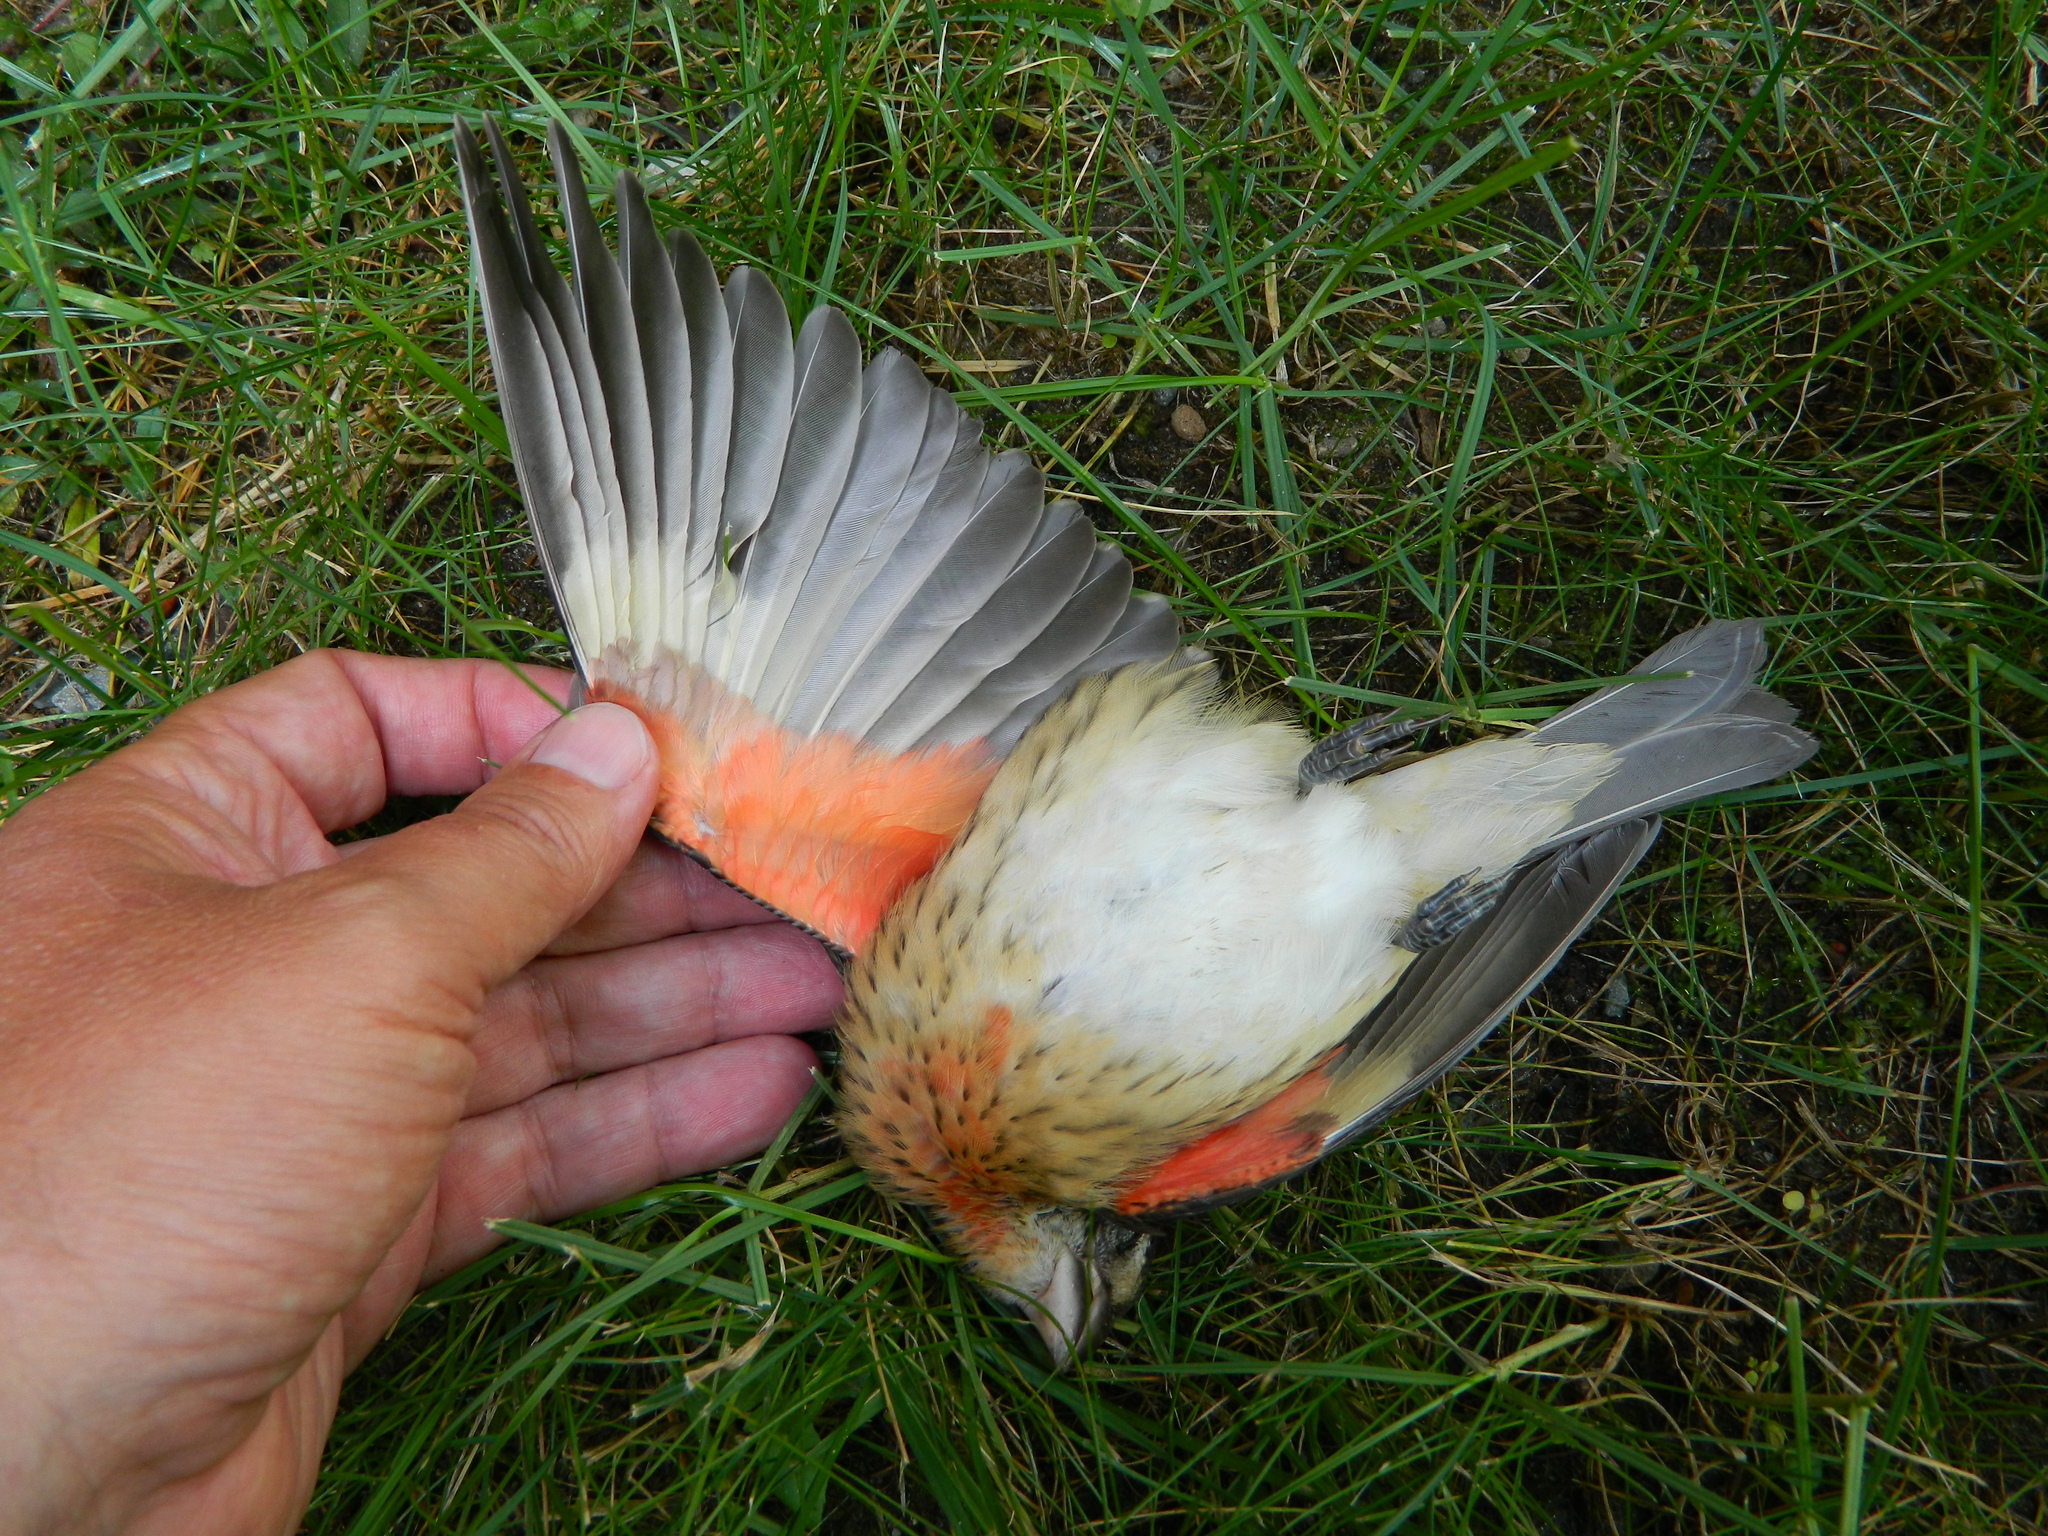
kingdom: Animalia
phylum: Chordata
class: Aves
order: Passeriformes
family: Cardinalidae
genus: Pheucticus
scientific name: Pheucticus ludovicianus
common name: Rose-breasted grosbeak
